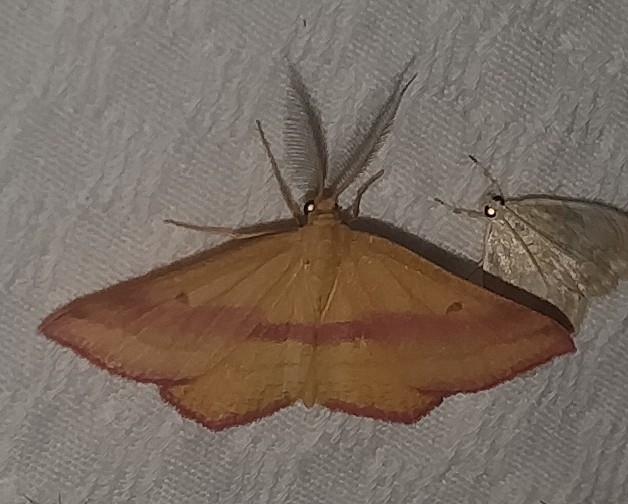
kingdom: Animalia
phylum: Arthropoda
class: Insecta
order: Lepidoptera
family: Geometridae
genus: Haematopis
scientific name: Haematopis grataria
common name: Chickweed geometer
